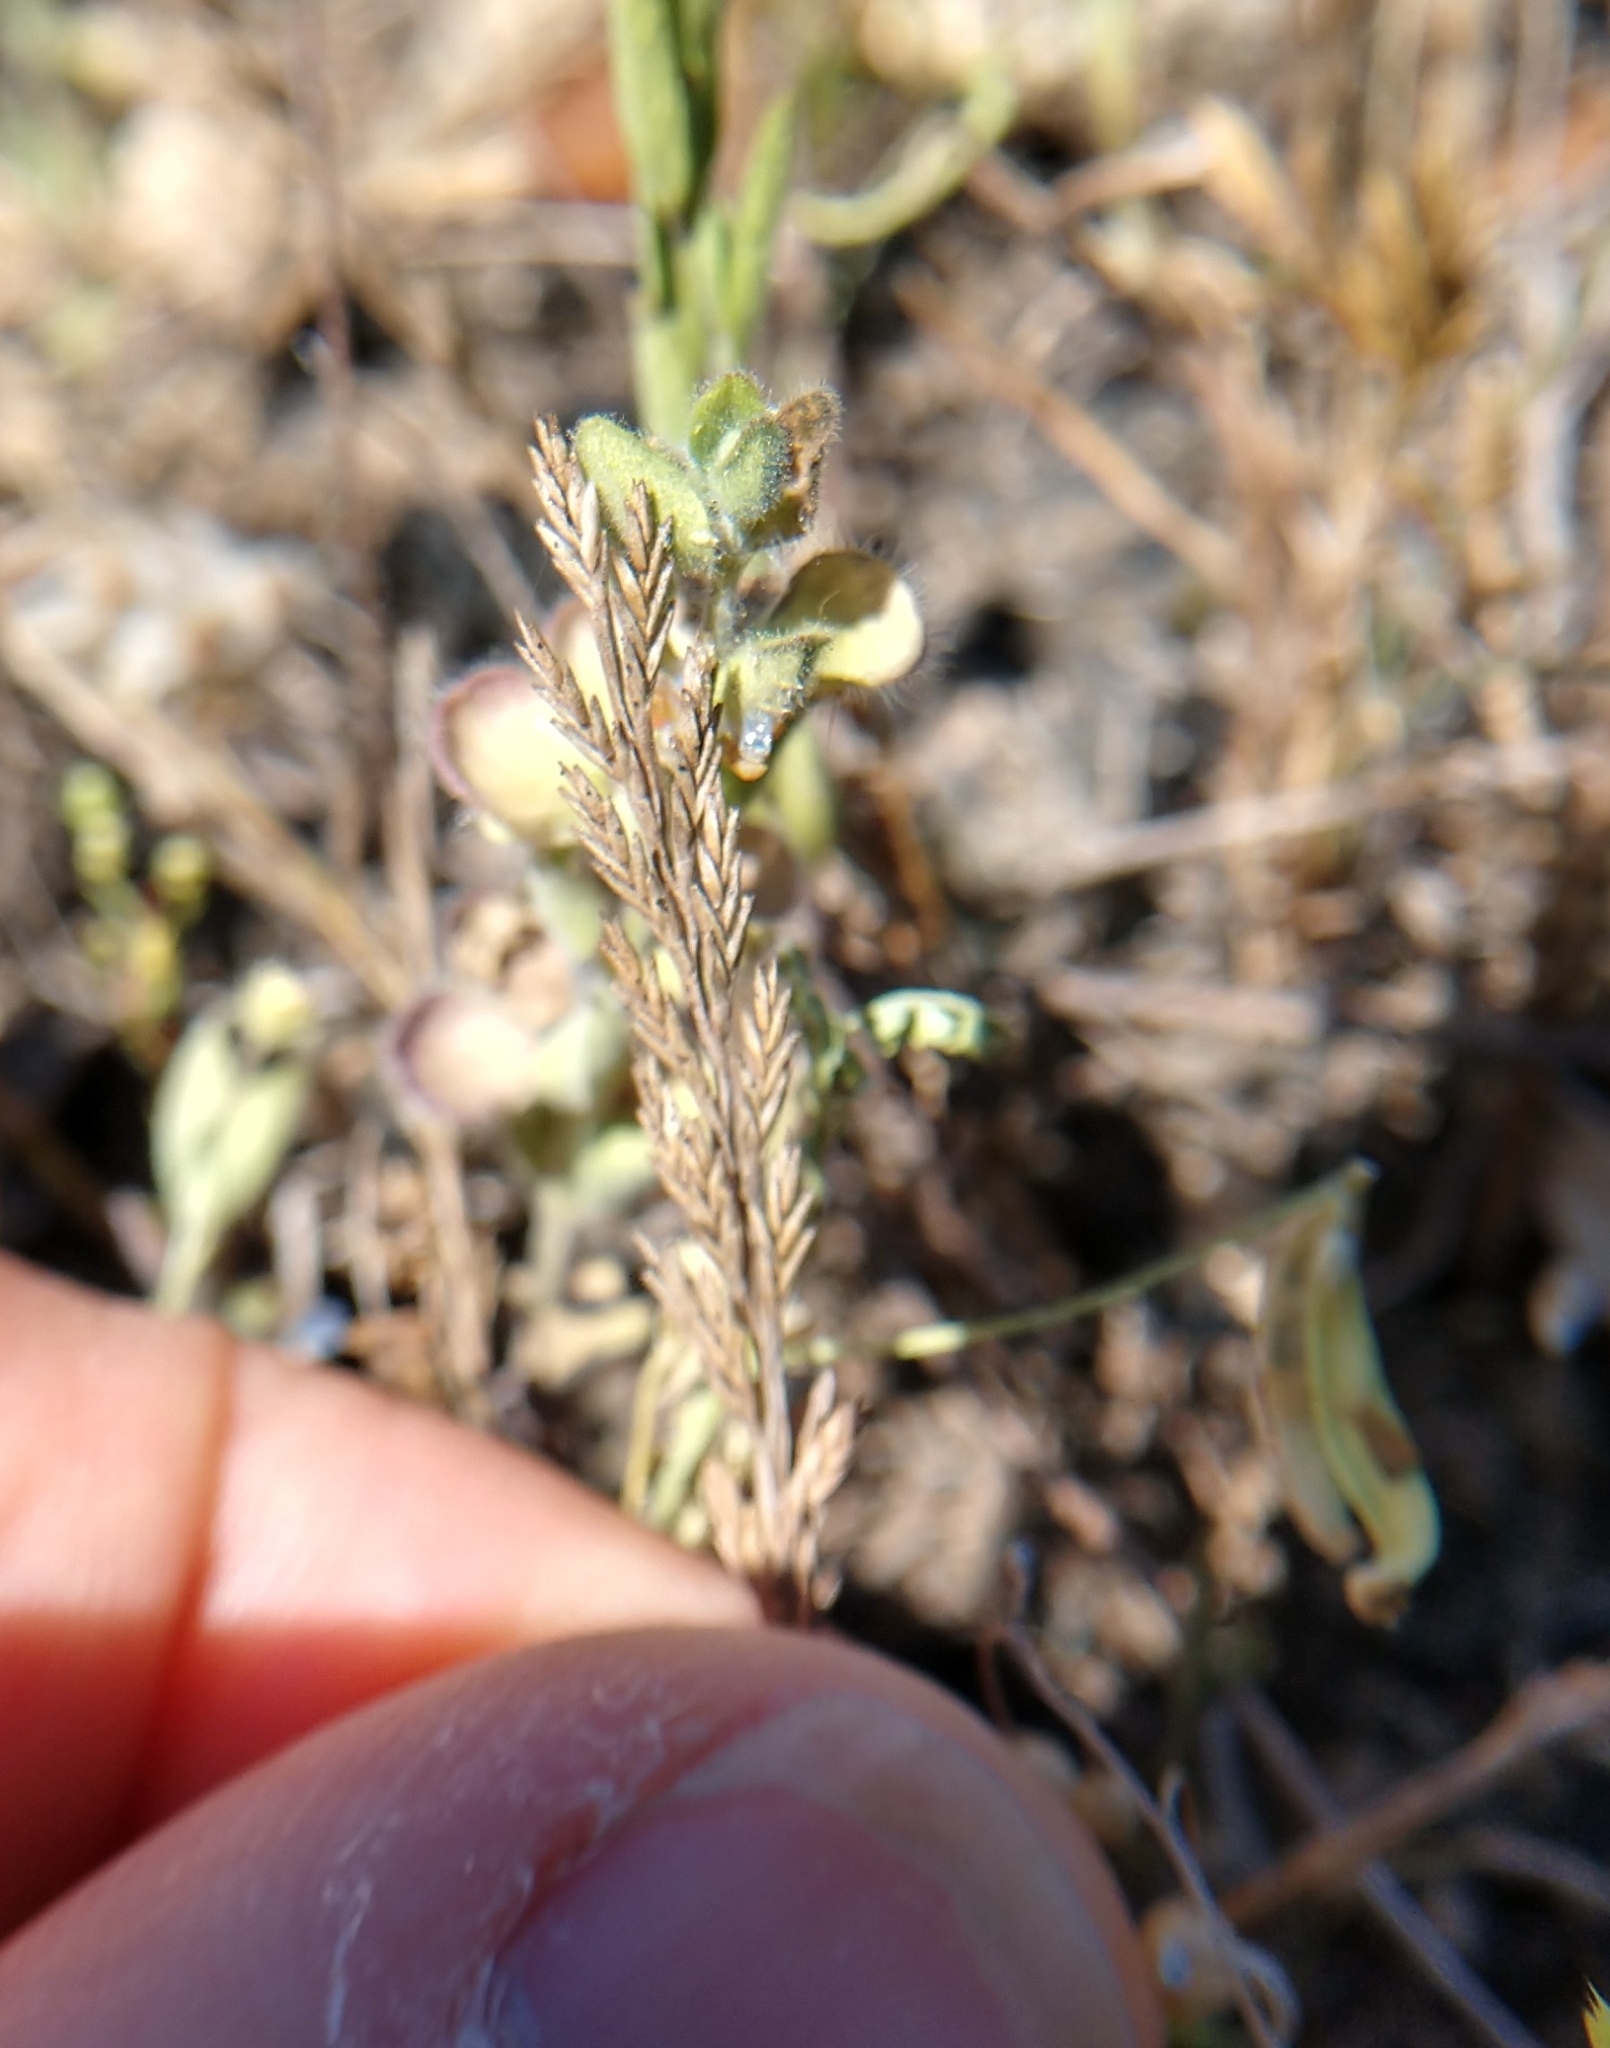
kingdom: Plantae
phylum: Tracheophyta
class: Liliopsida
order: Poales
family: Poaceae
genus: Catapodium
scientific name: Catapodium rigidum
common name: Fern-grass
